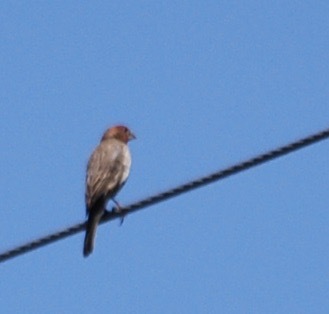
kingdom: Animalia
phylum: Chordata
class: Aves
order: Passeriformes
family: Fringillidae
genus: Haemorhous
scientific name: Haemorhous mexicanus
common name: House finch
